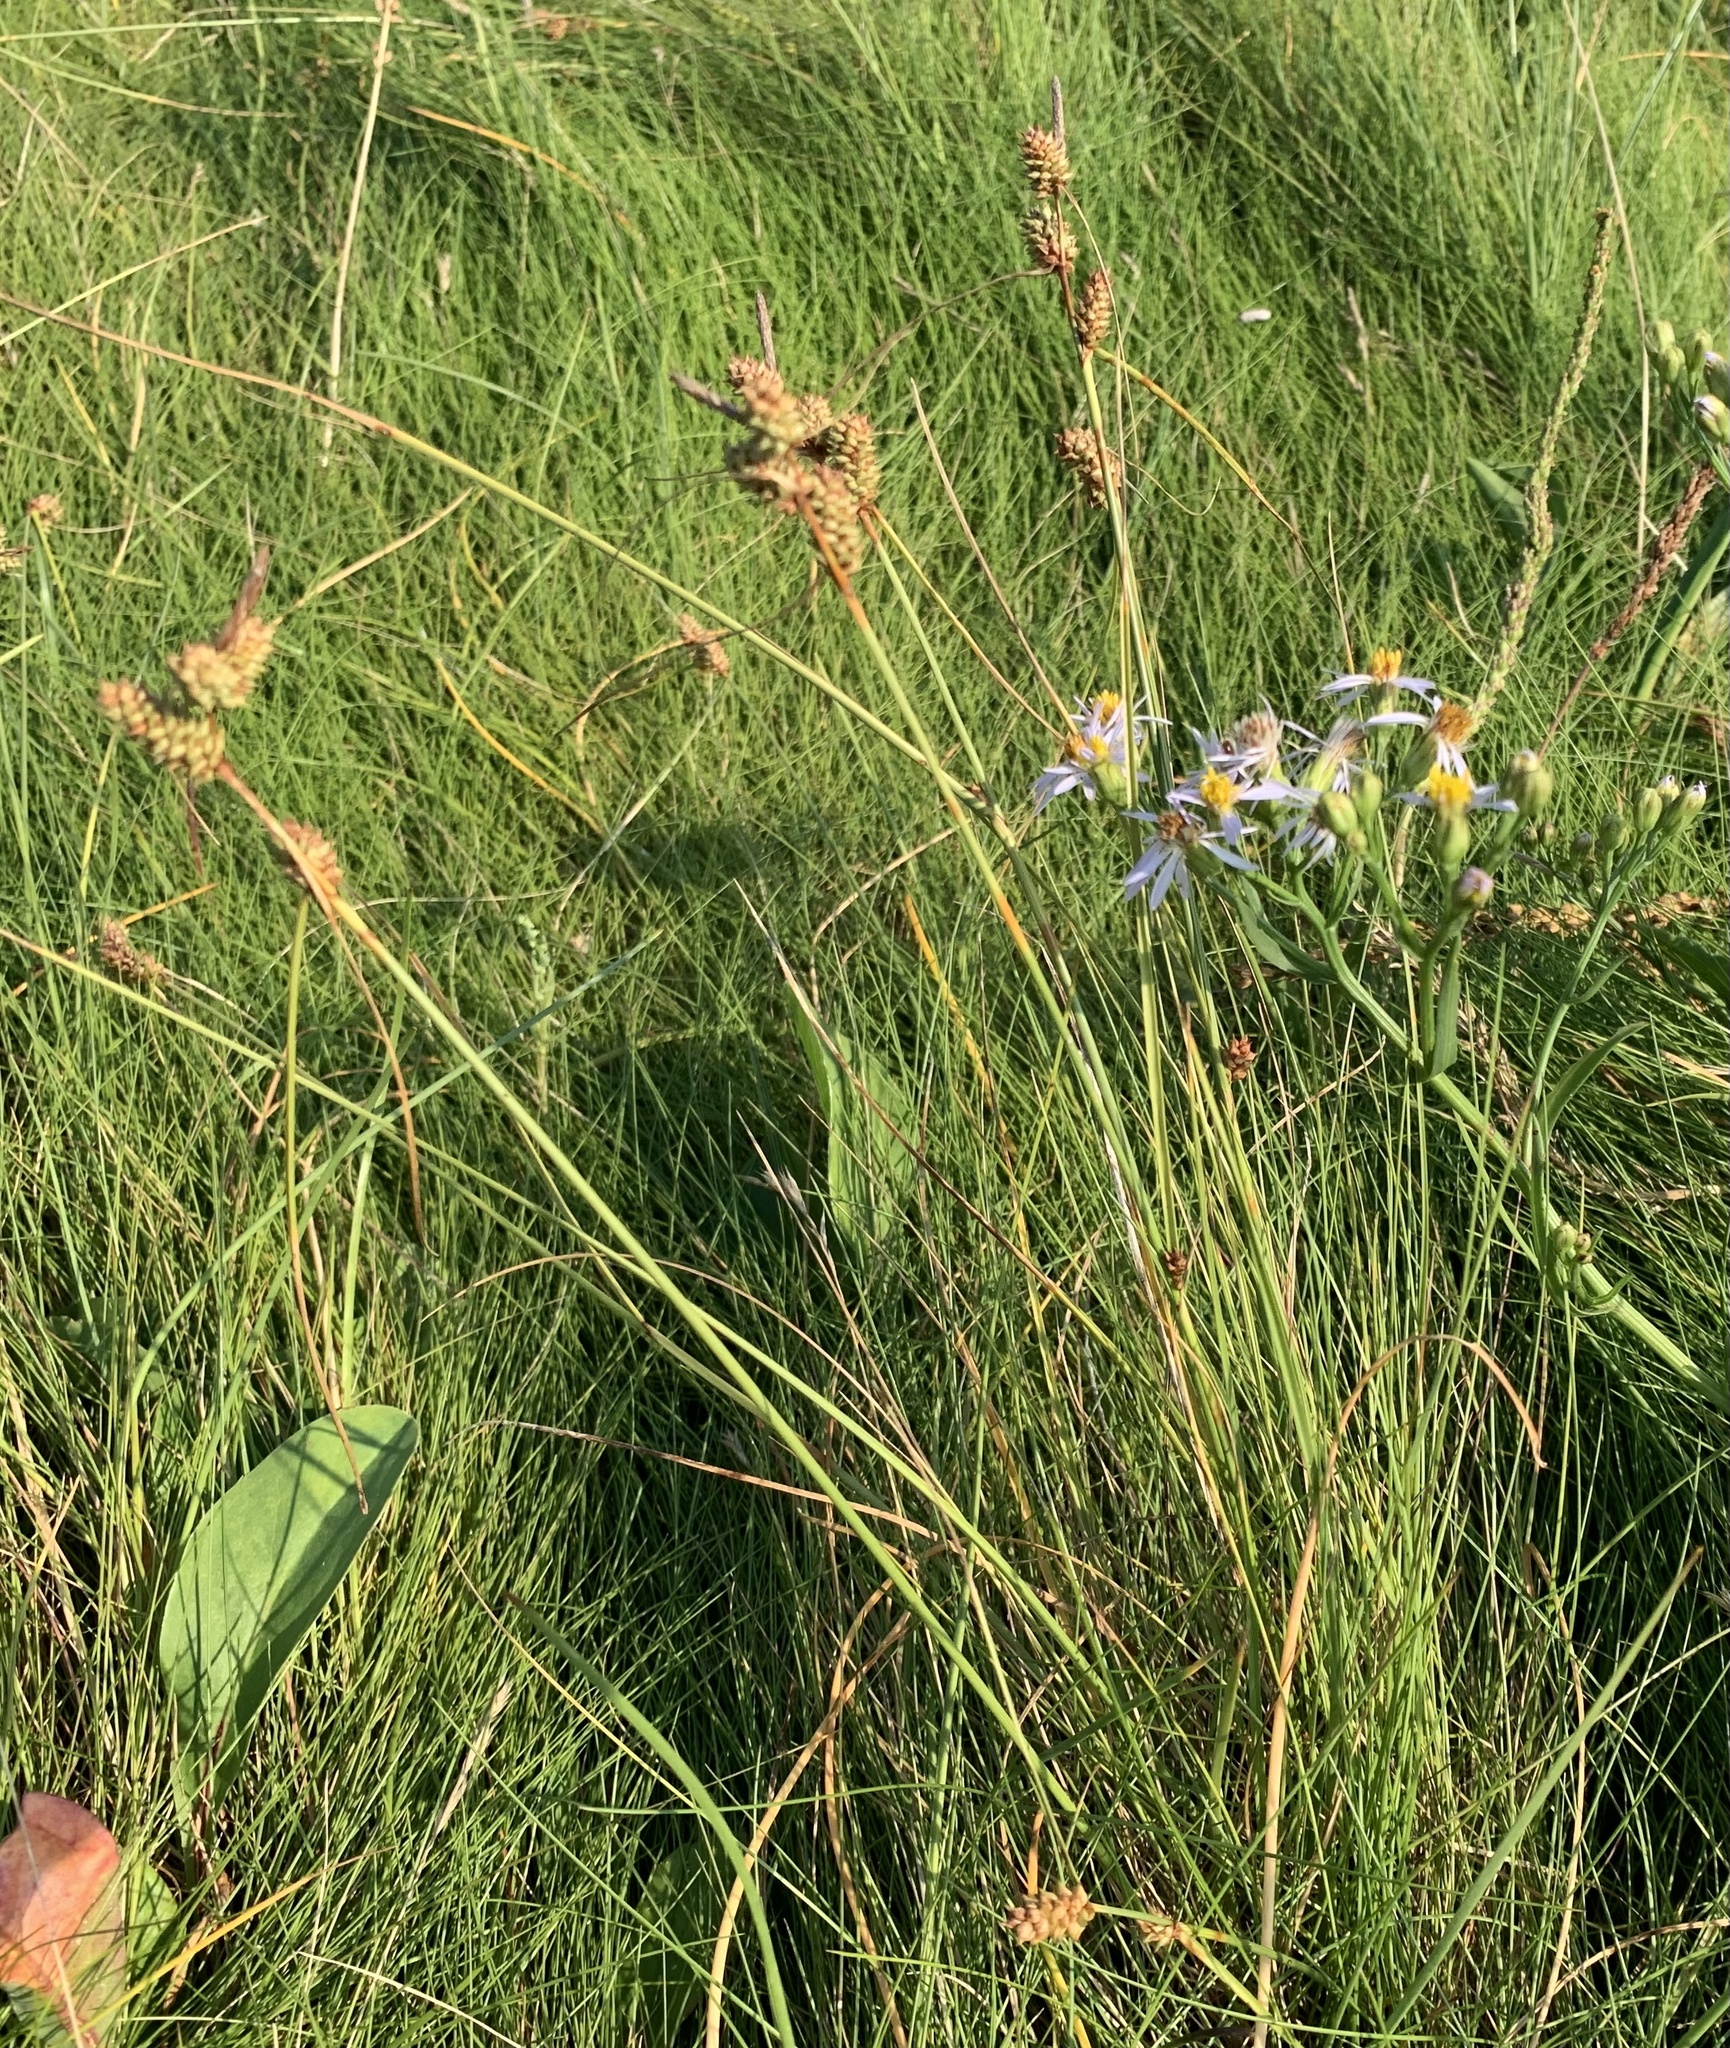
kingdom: Plantae
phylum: Tracheophyta
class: Liliopsida
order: Poales
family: Cyperaceae
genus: Carex
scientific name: Carex extensa
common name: Long-bracted sedge
